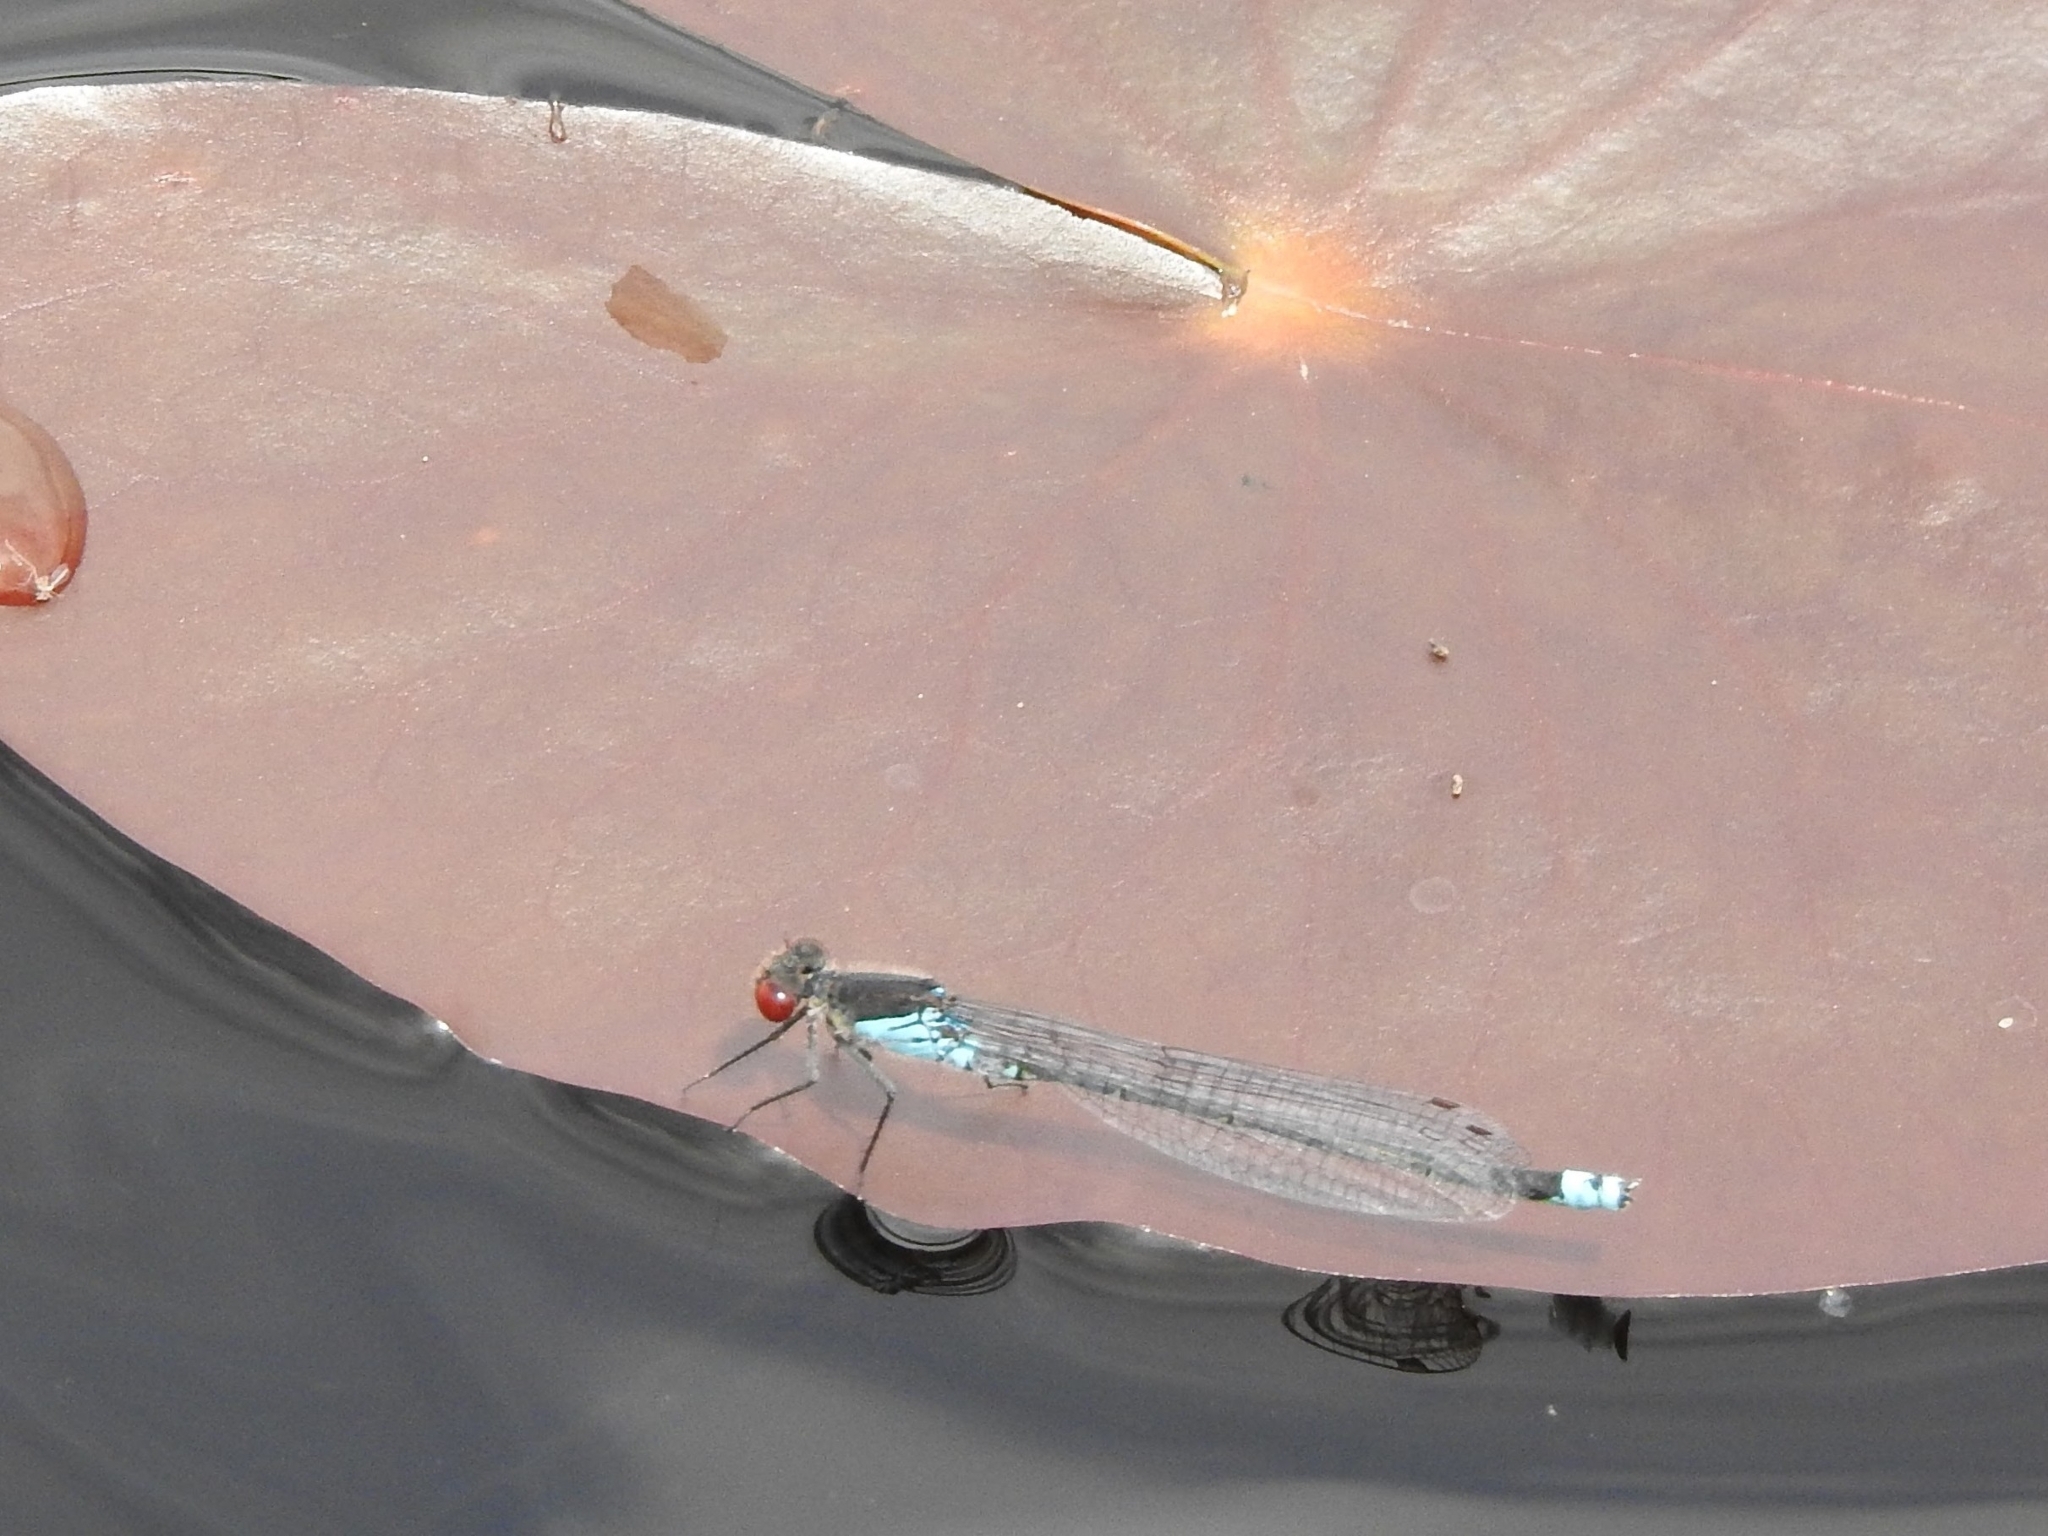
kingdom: Animalia
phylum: Arthropoda
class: Insecta
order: Odonata
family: Coenagrionidae
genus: Erythromma
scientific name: Erythromma najas
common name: Red-eyed damselfly
